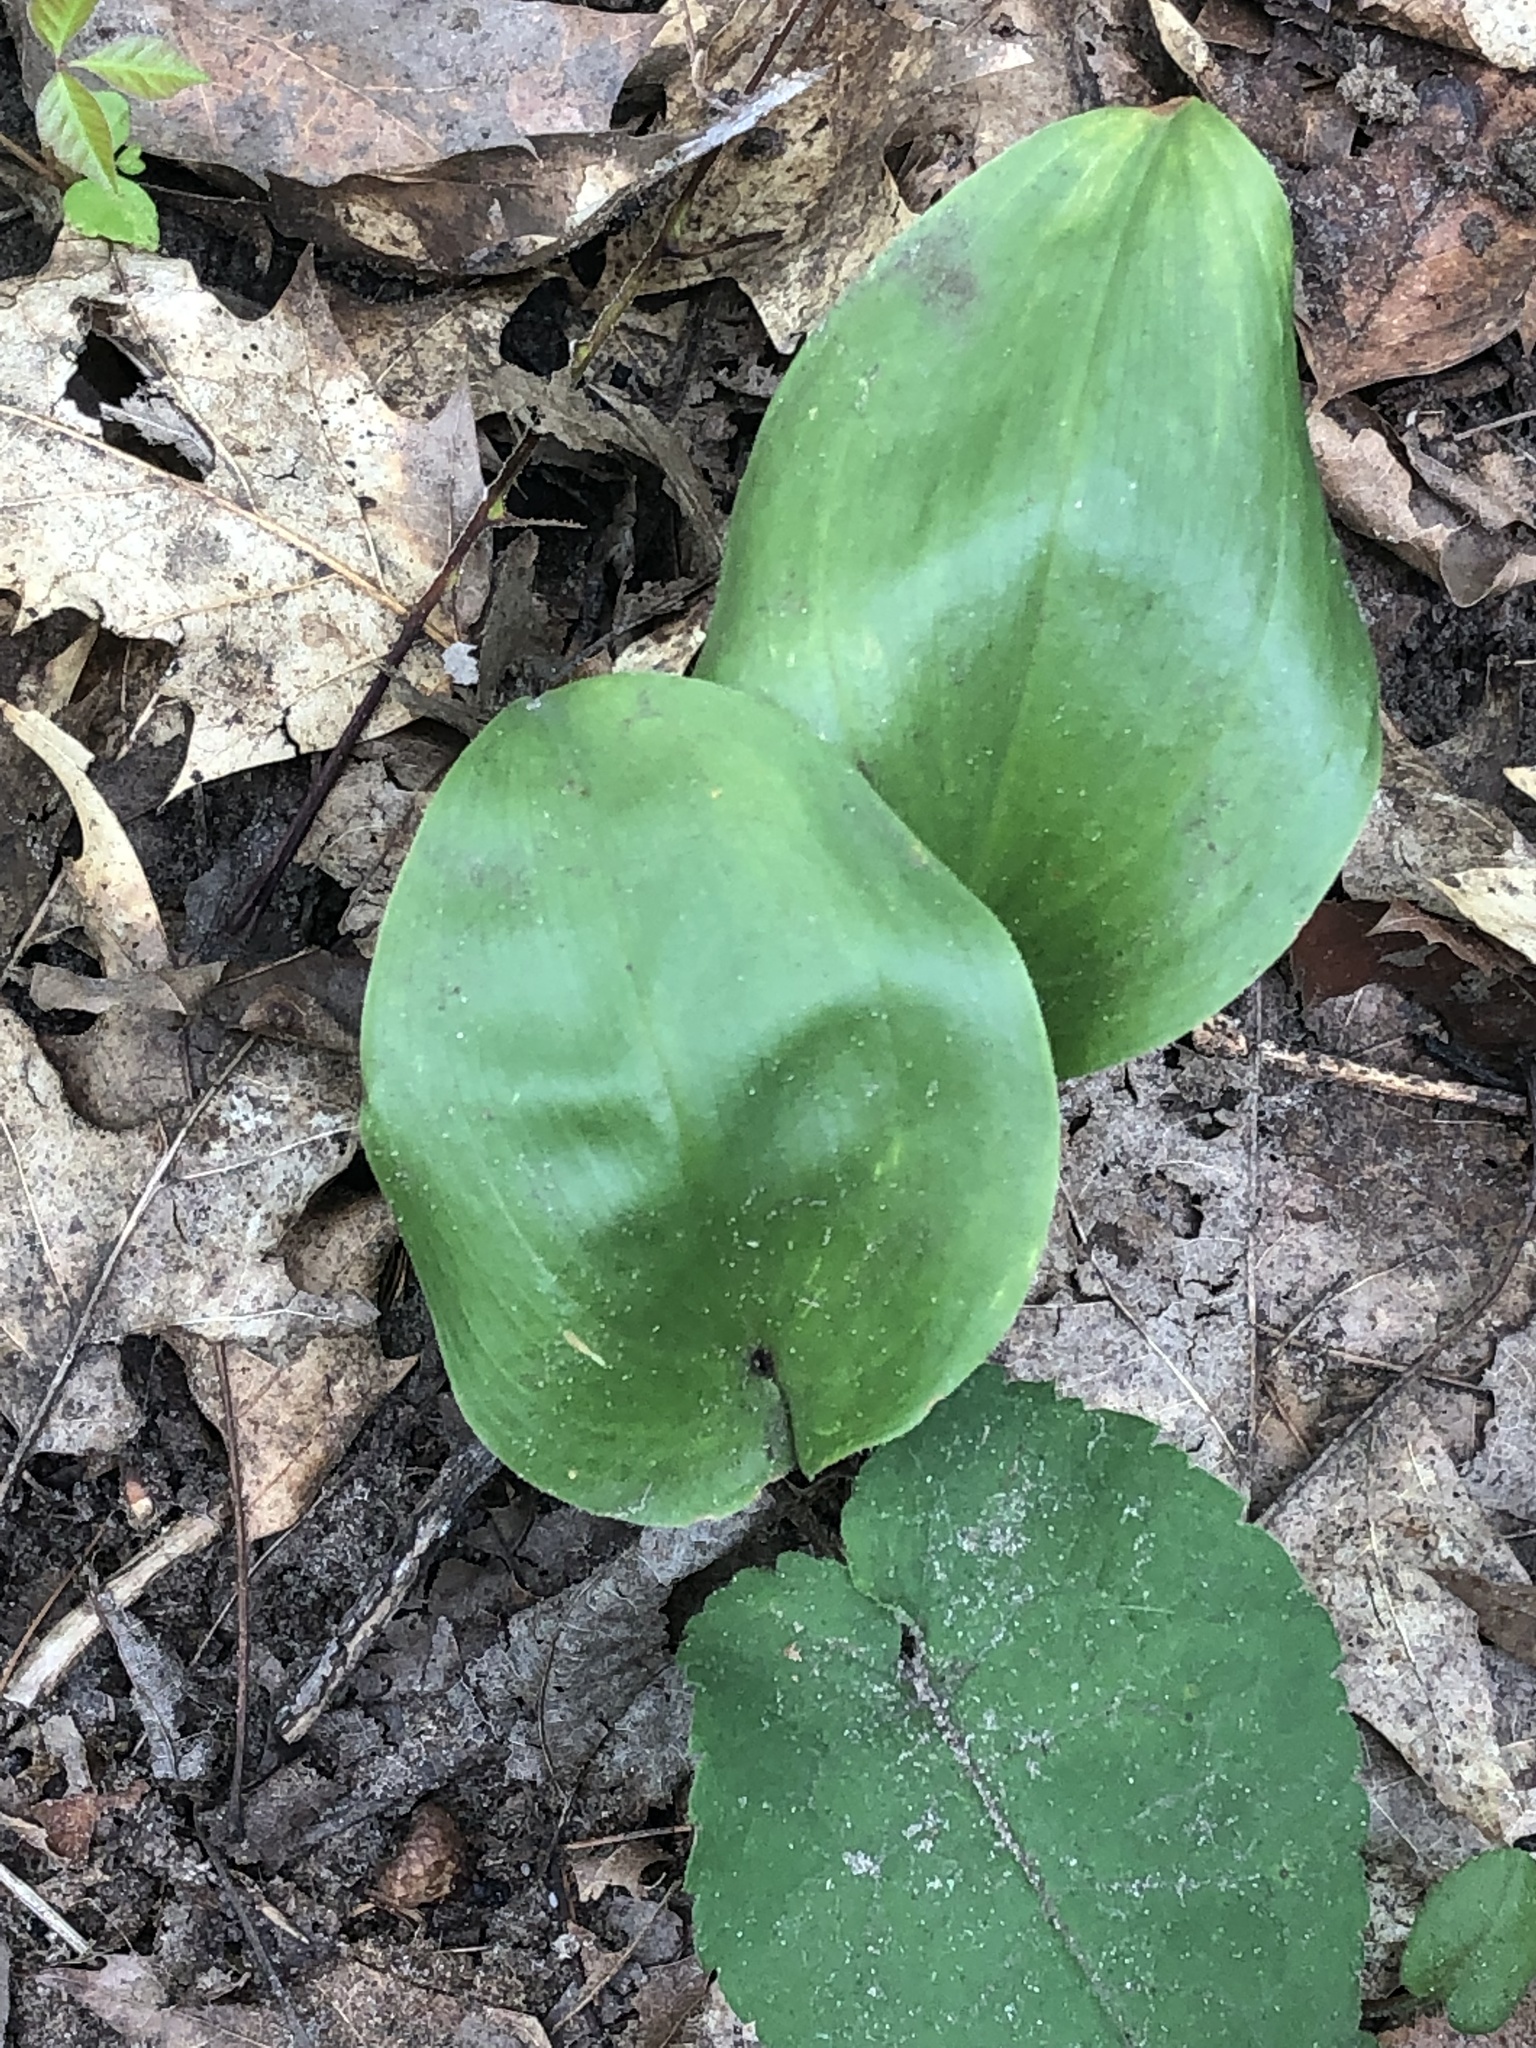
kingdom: Plantae
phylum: Tracheophyta
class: Liliopsida
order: Asparagales
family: Asparagaceae
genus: Maianthemum
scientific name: Maianthemum canadense
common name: False lily-of-the-valley
